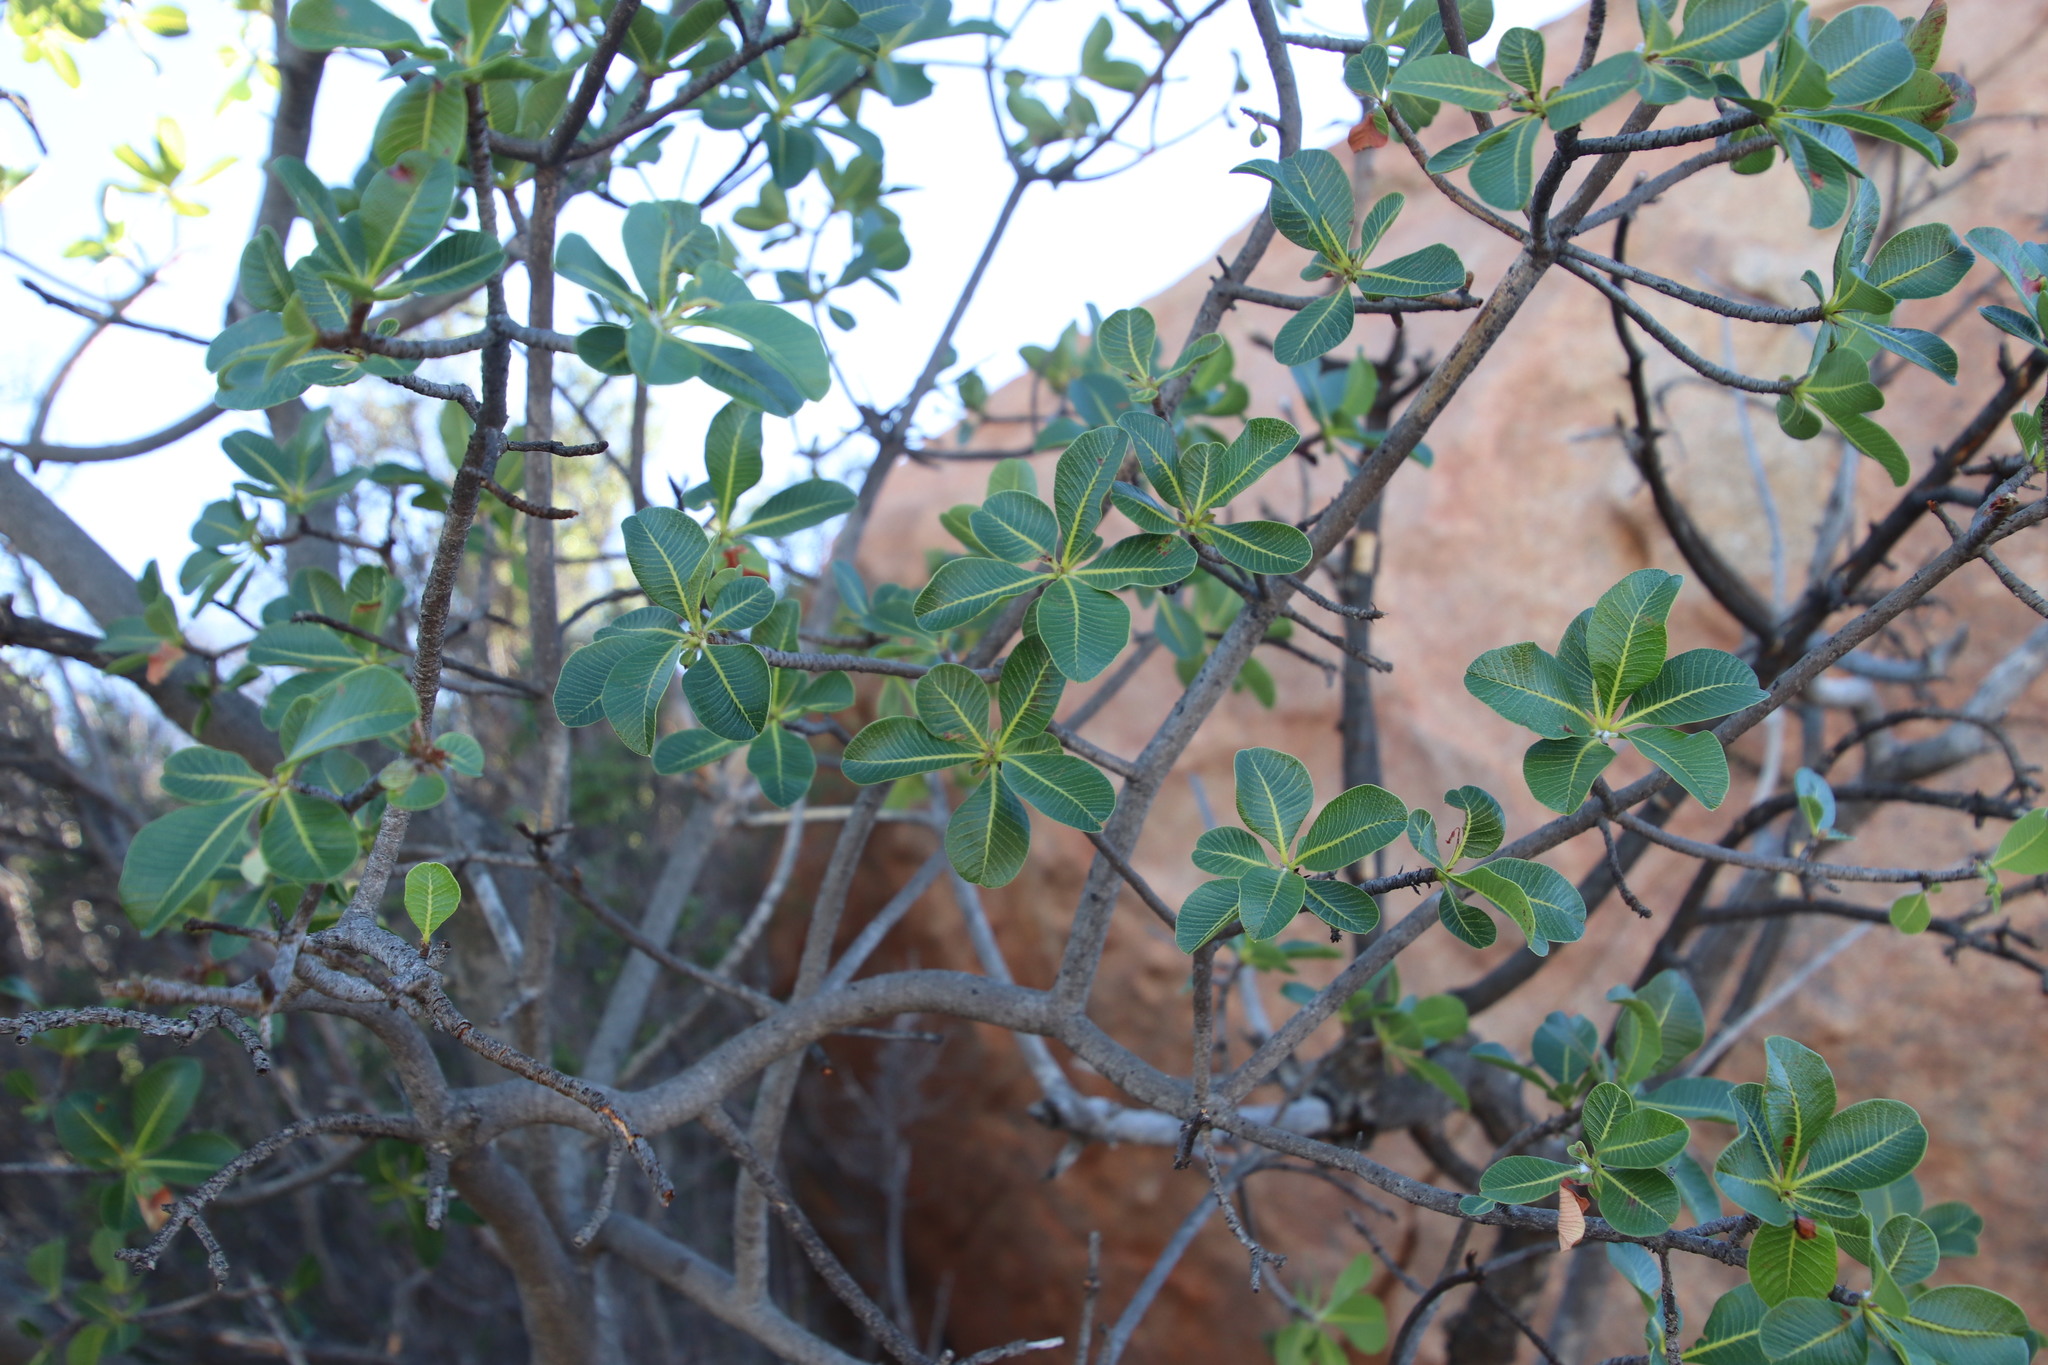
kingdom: Plantae
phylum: Tracheophyta
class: Magnoliopsida
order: Sapindales
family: Anacardiaceae
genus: Ozoroa
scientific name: Ozoroa dispar
